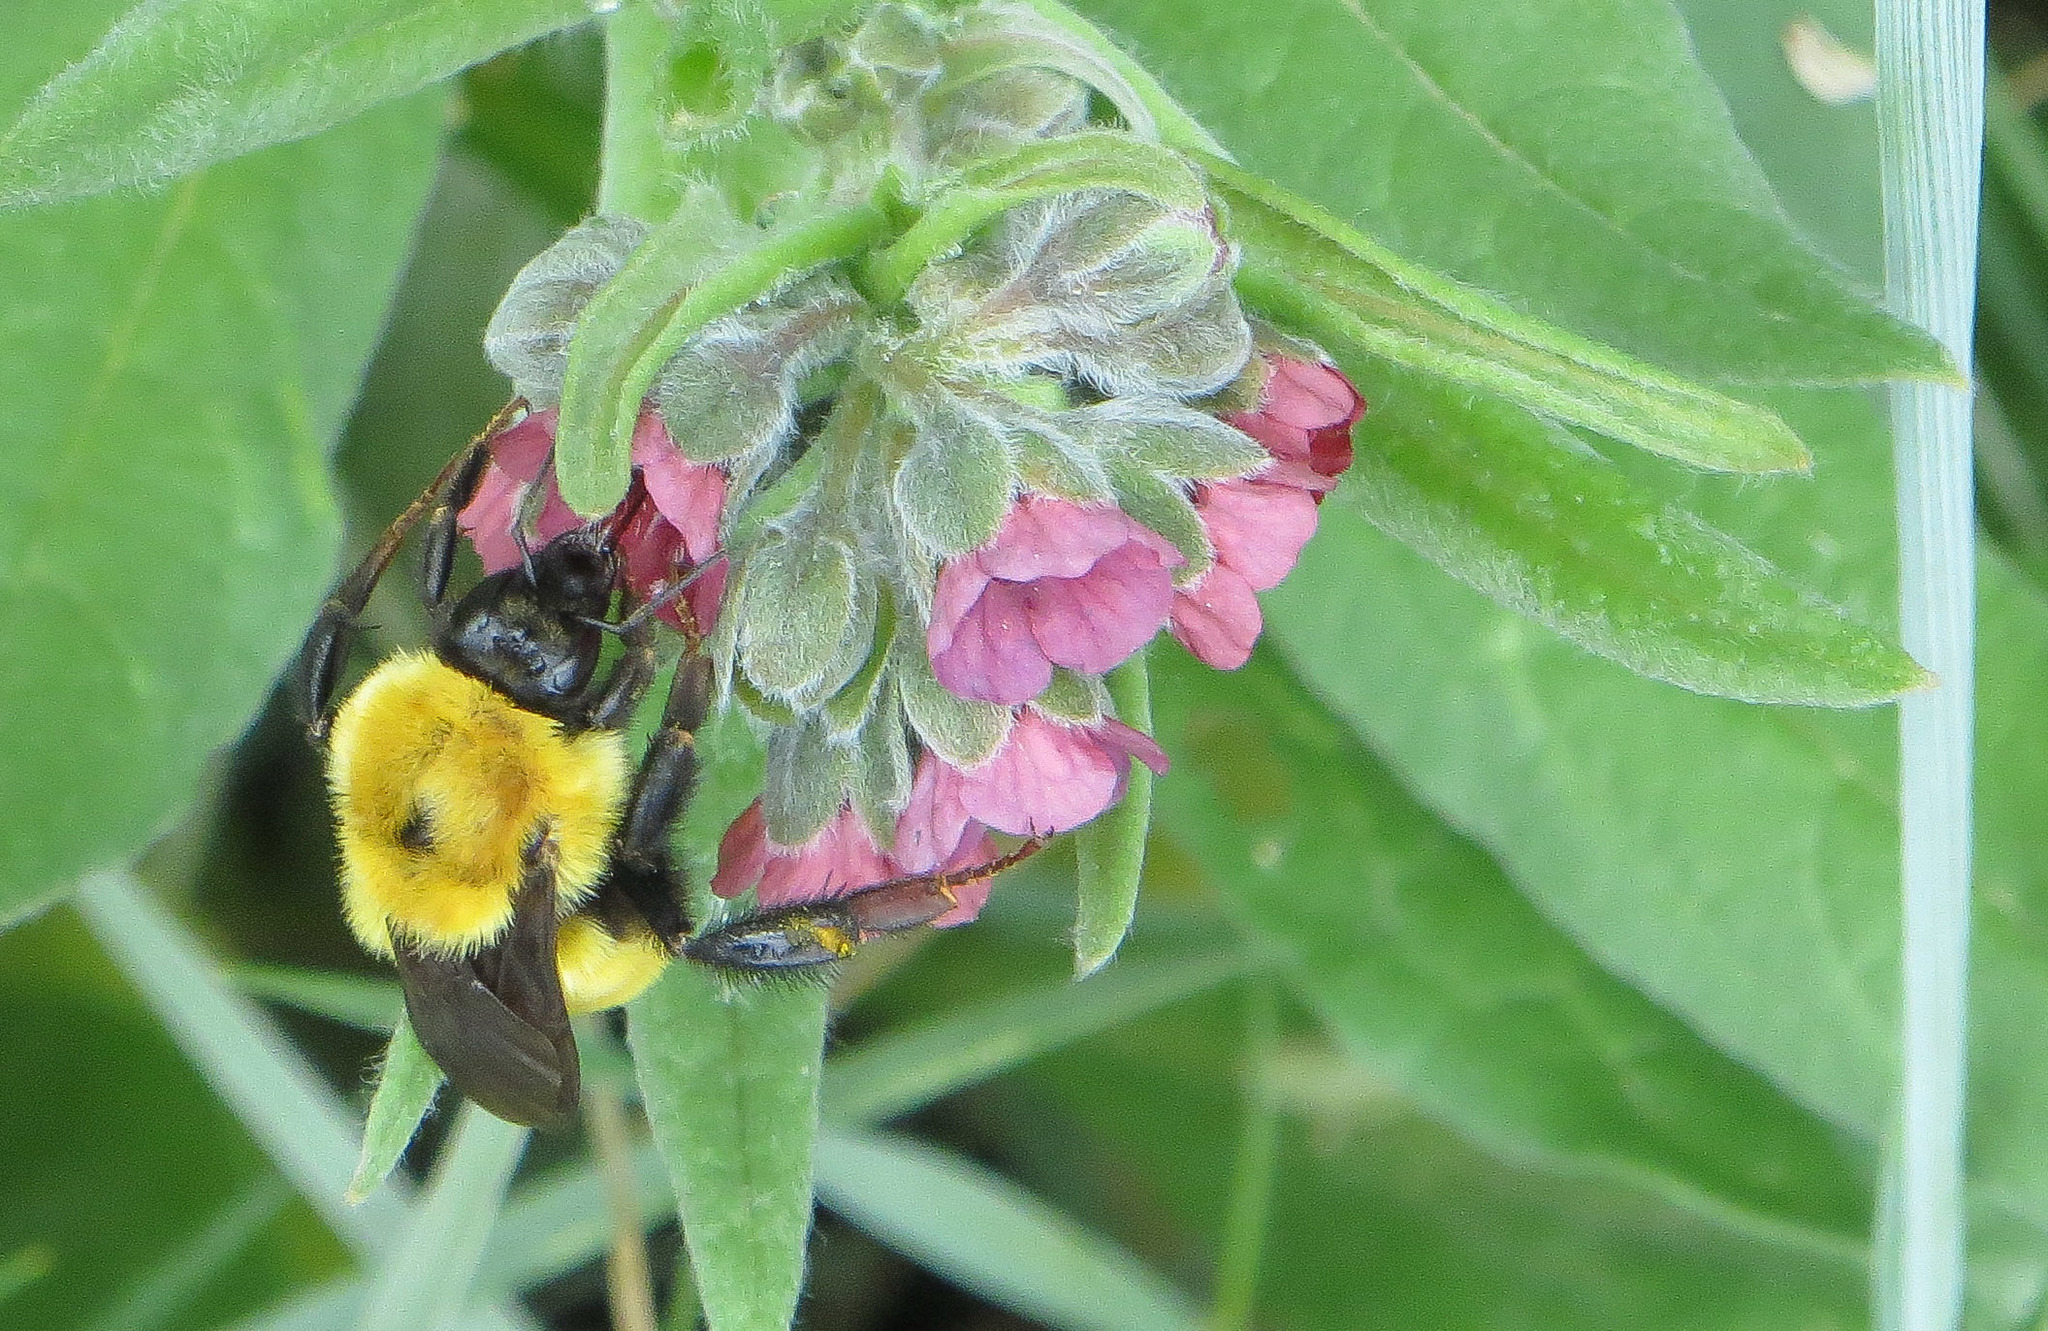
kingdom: Animalia
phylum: Arthropoda
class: Insecta
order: Hymenoptera
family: Apidae
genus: Bombus
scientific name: Bombus fervidus
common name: Yellow bumble bee
